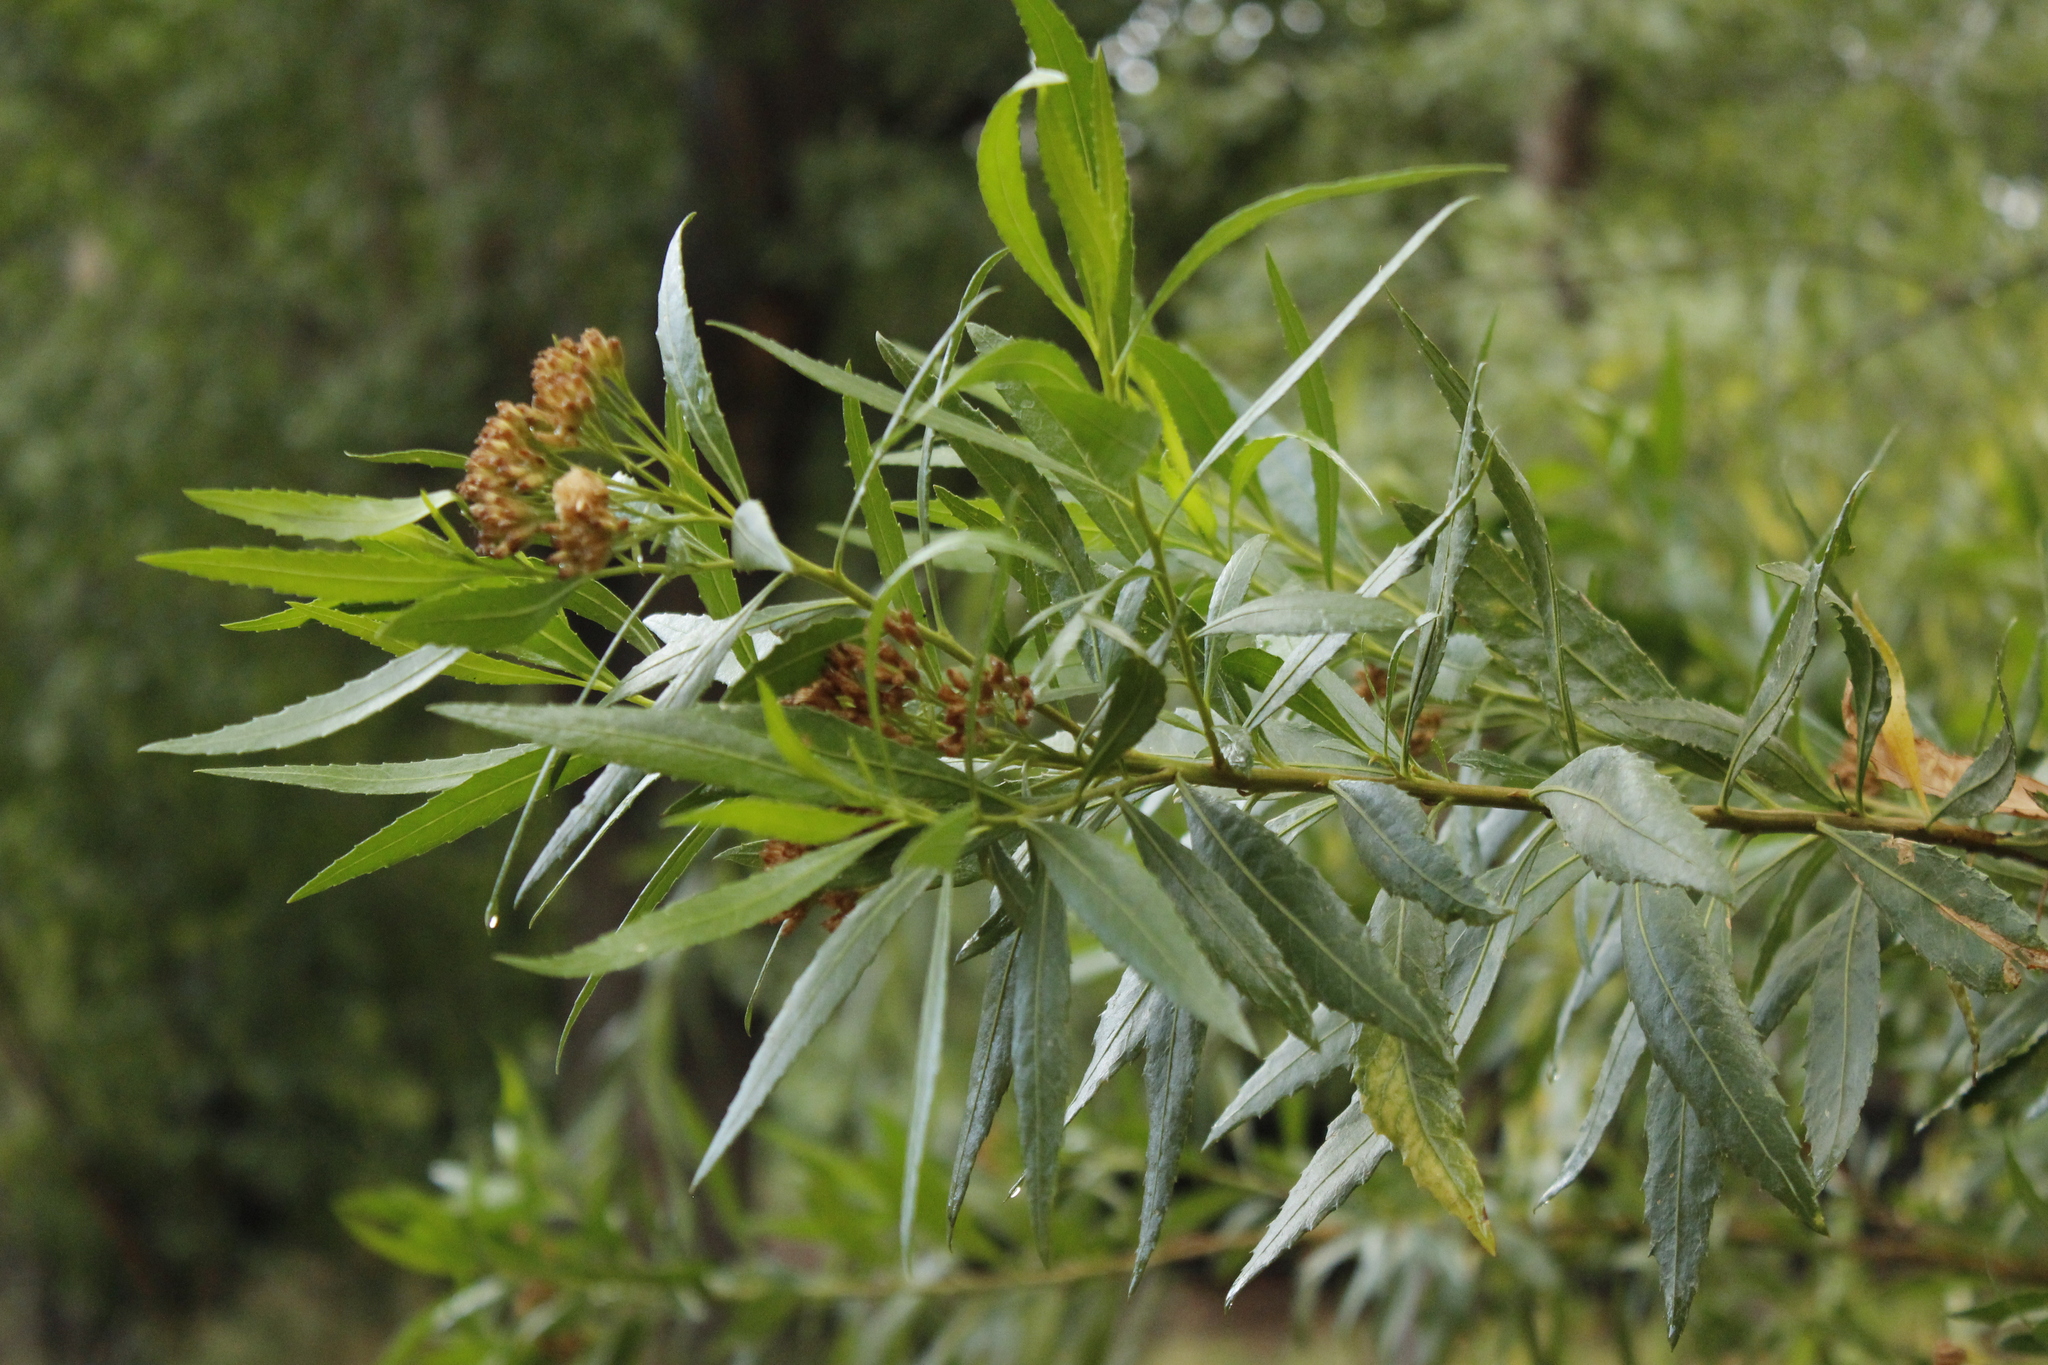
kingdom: Plantae
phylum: Tracheophyta
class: Magnoliopsida
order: Asterales
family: Asteraceae
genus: Tessaria
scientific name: Tessaria dodonaeifolia
